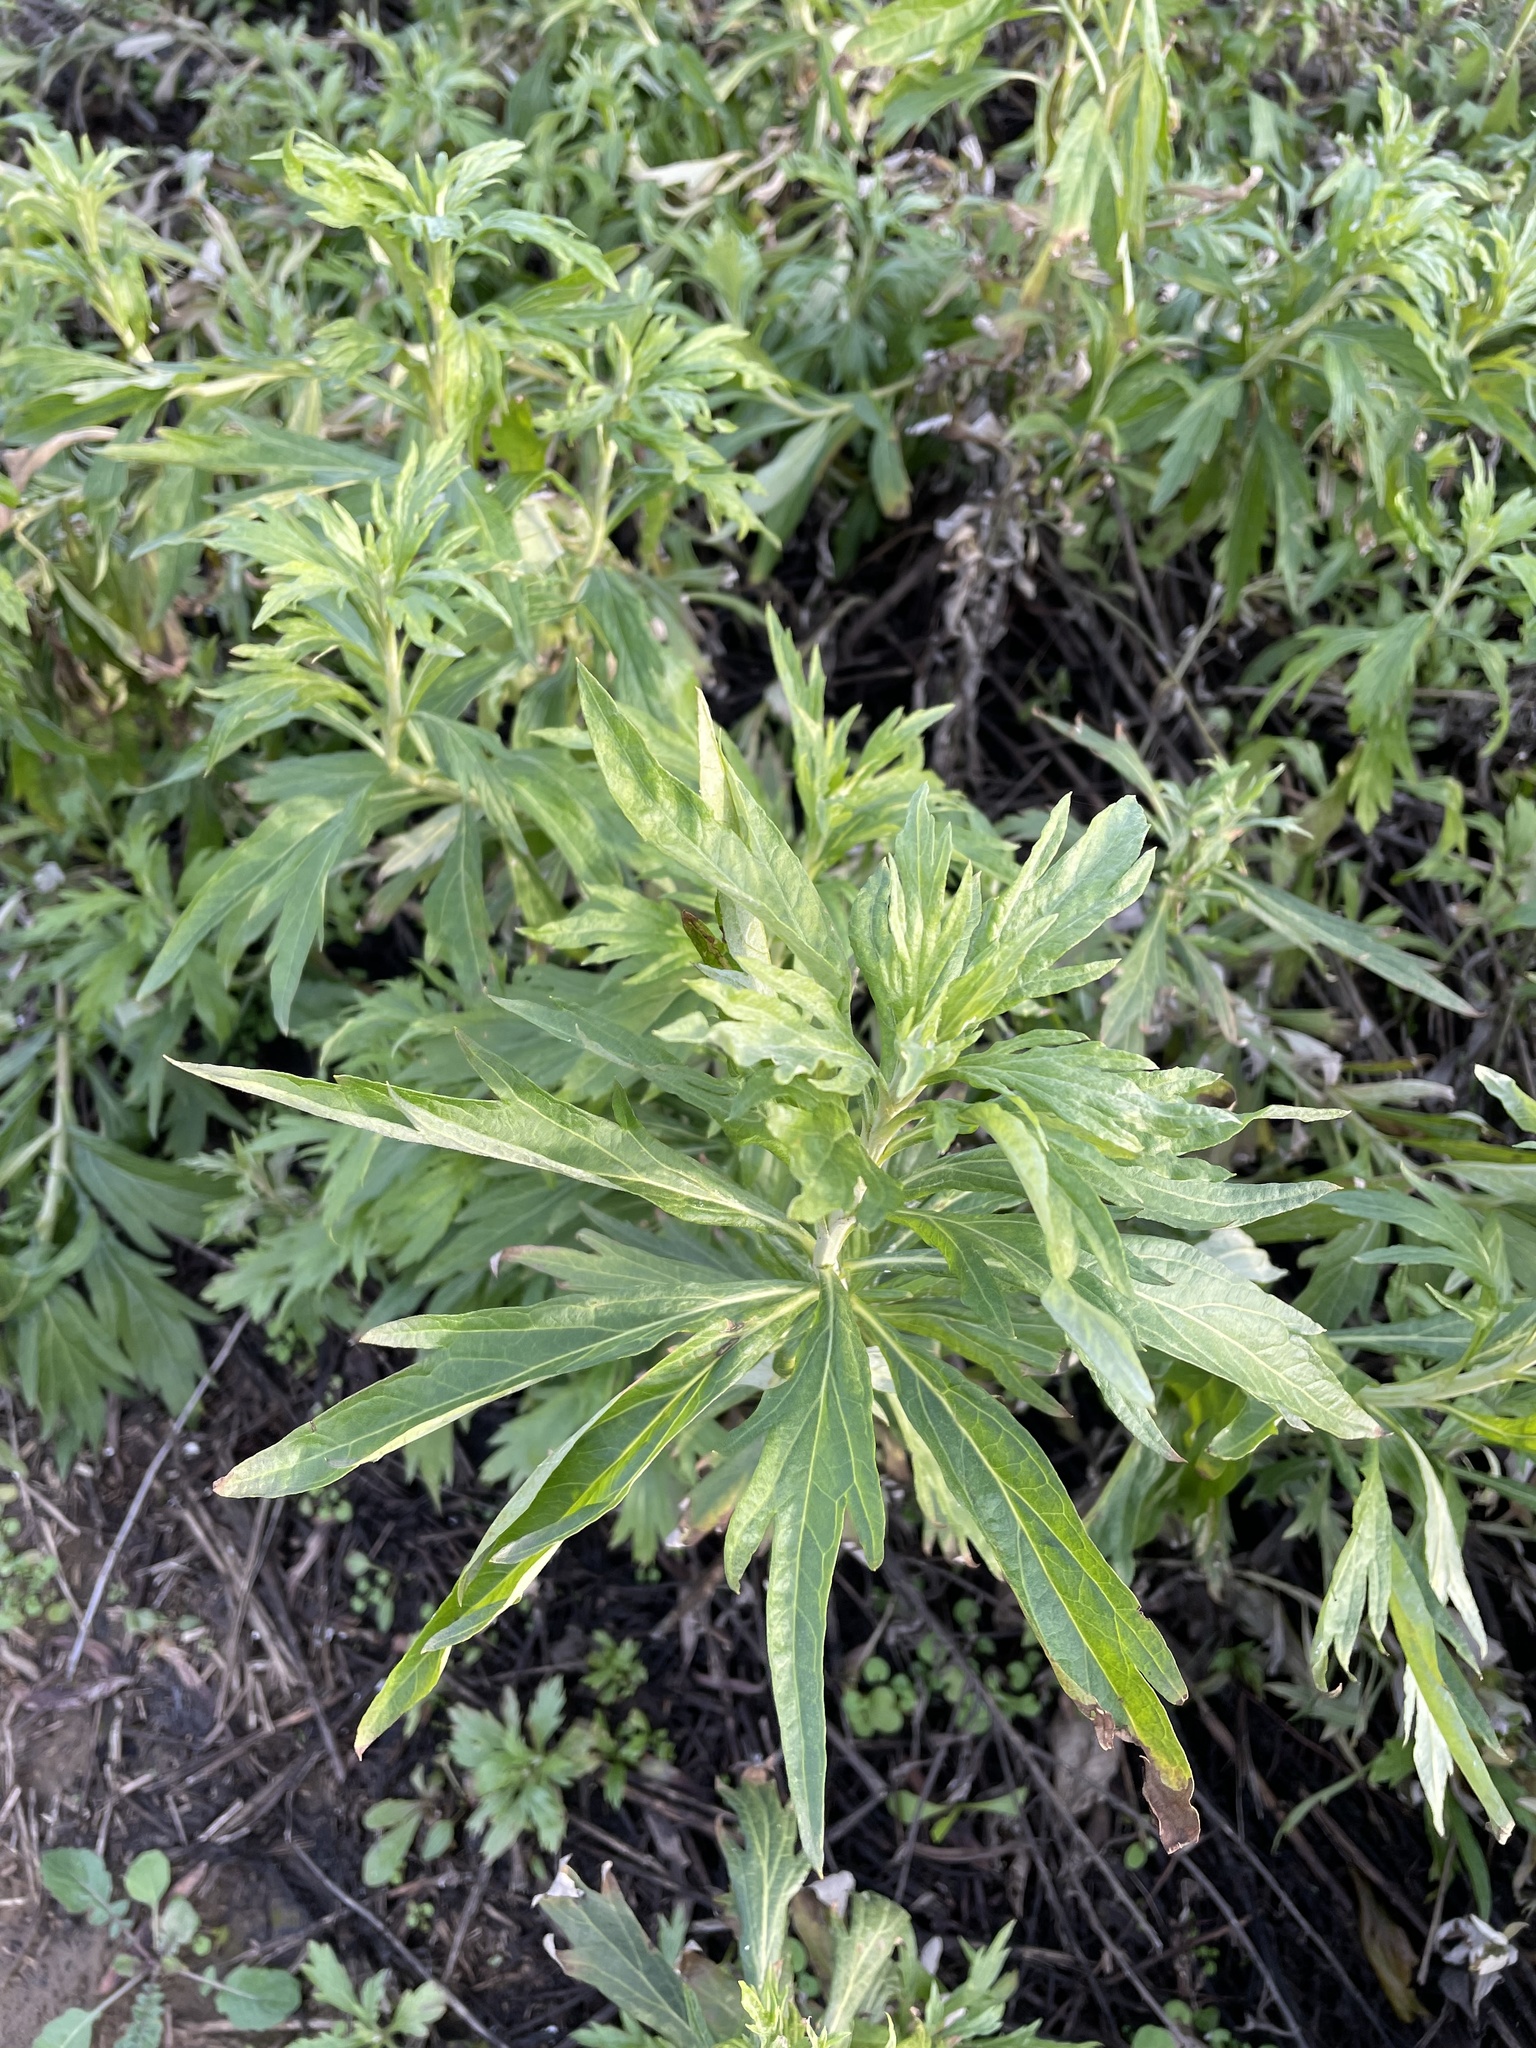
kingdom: Plantae
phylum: Tracheophyta
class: Magnoliopsida
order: Asterales
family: Asteraceae
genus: Artemisia
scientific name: Artemisia douglasiana
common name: Northwest mugwort
